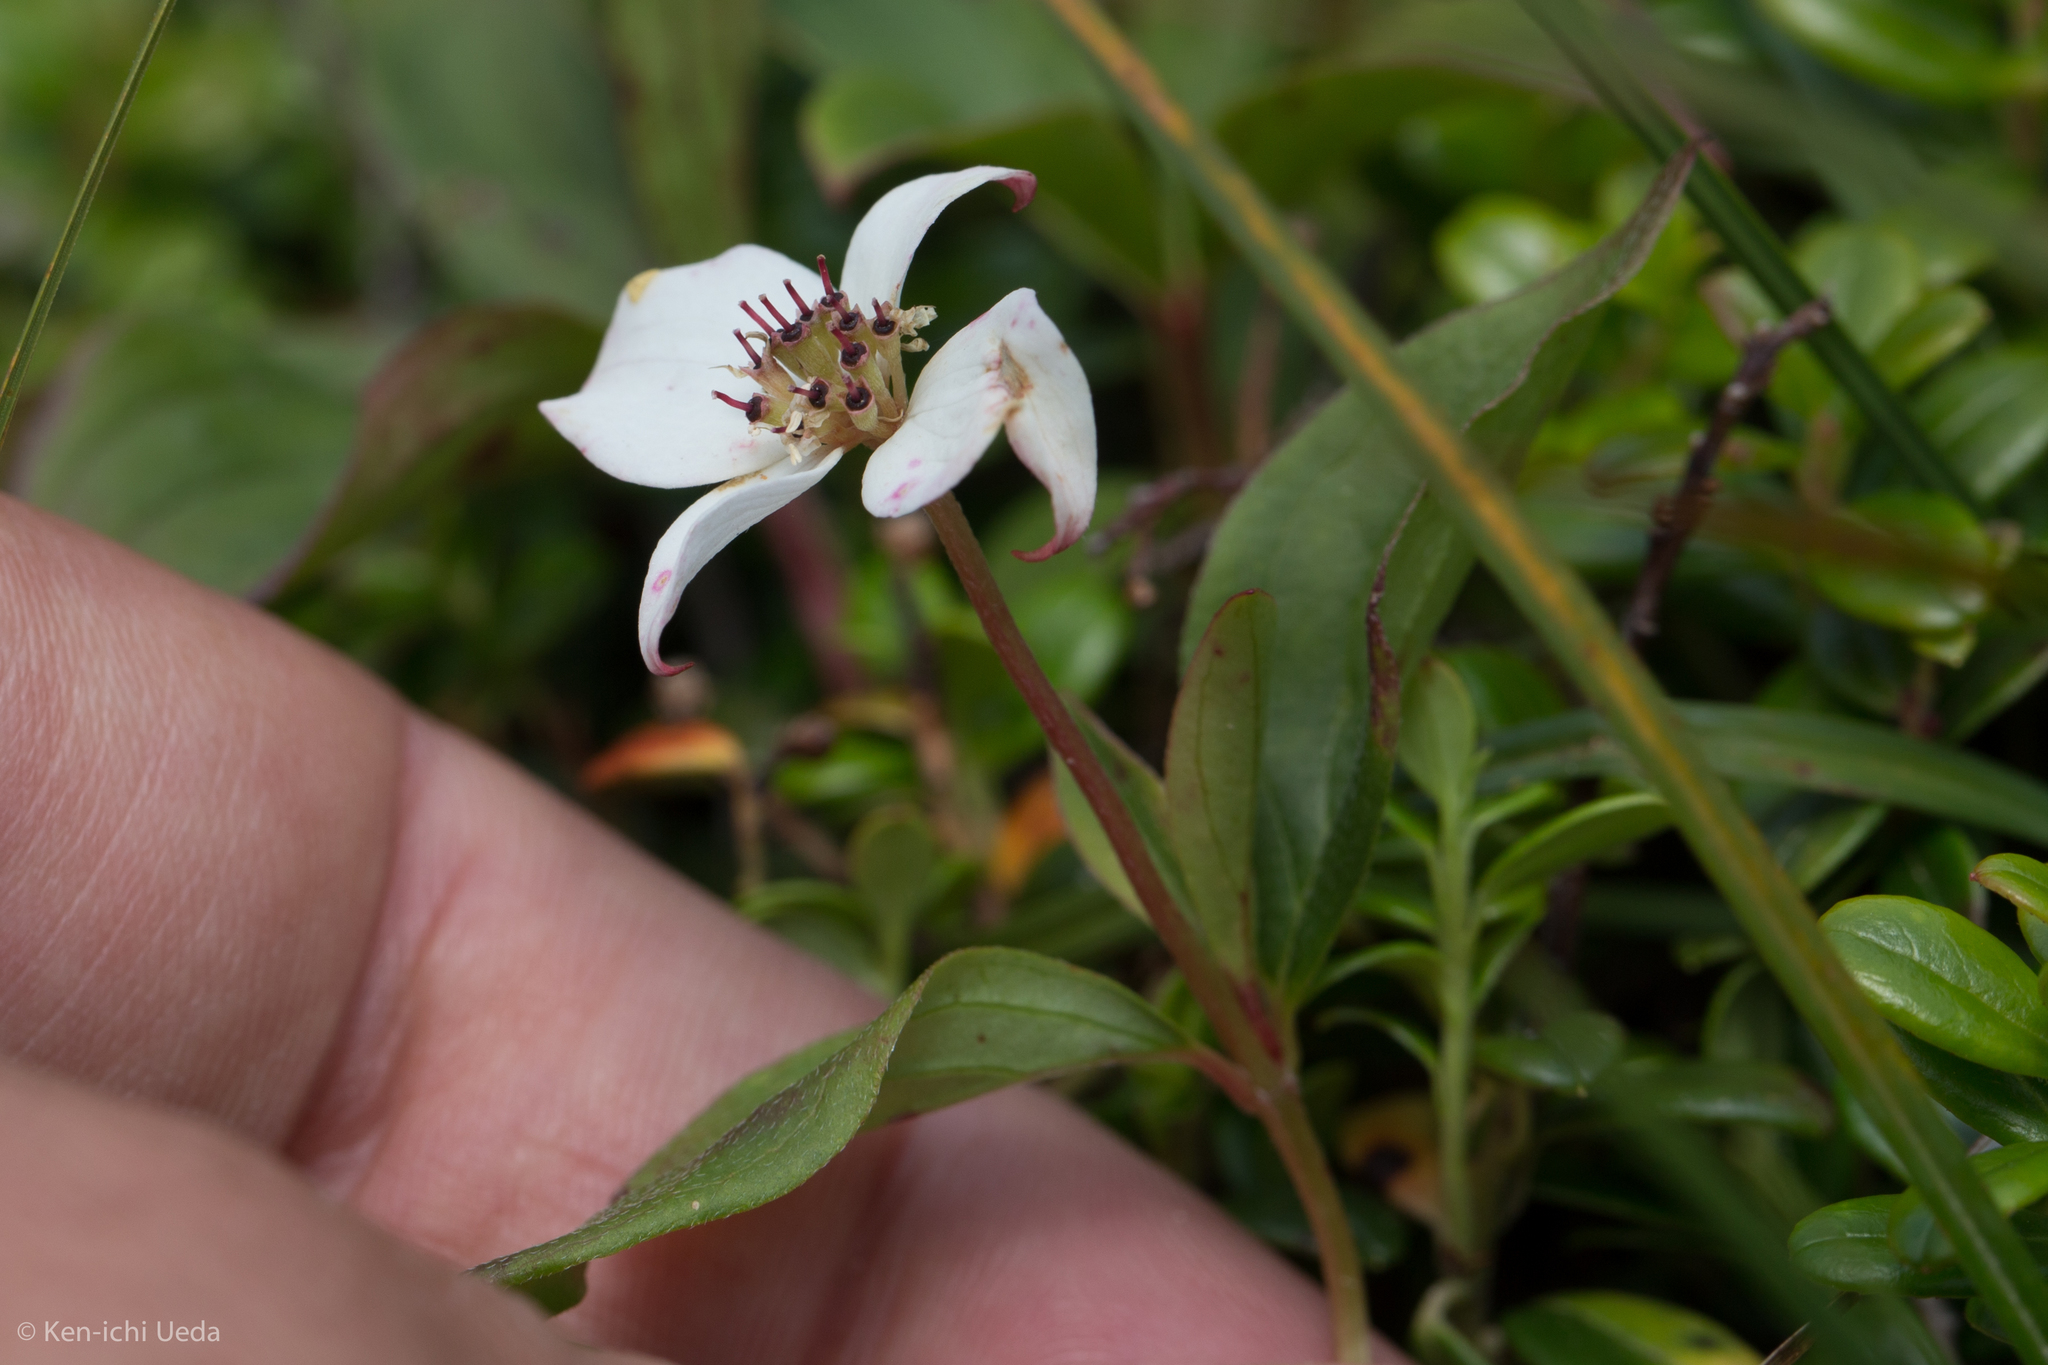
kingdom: Plantae
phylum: Tracheophyta
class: Magnoliopsida
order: Cornales
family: Cornaceae
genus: Cornus
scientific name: Cornus canadensis
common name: Creeping dogwood
